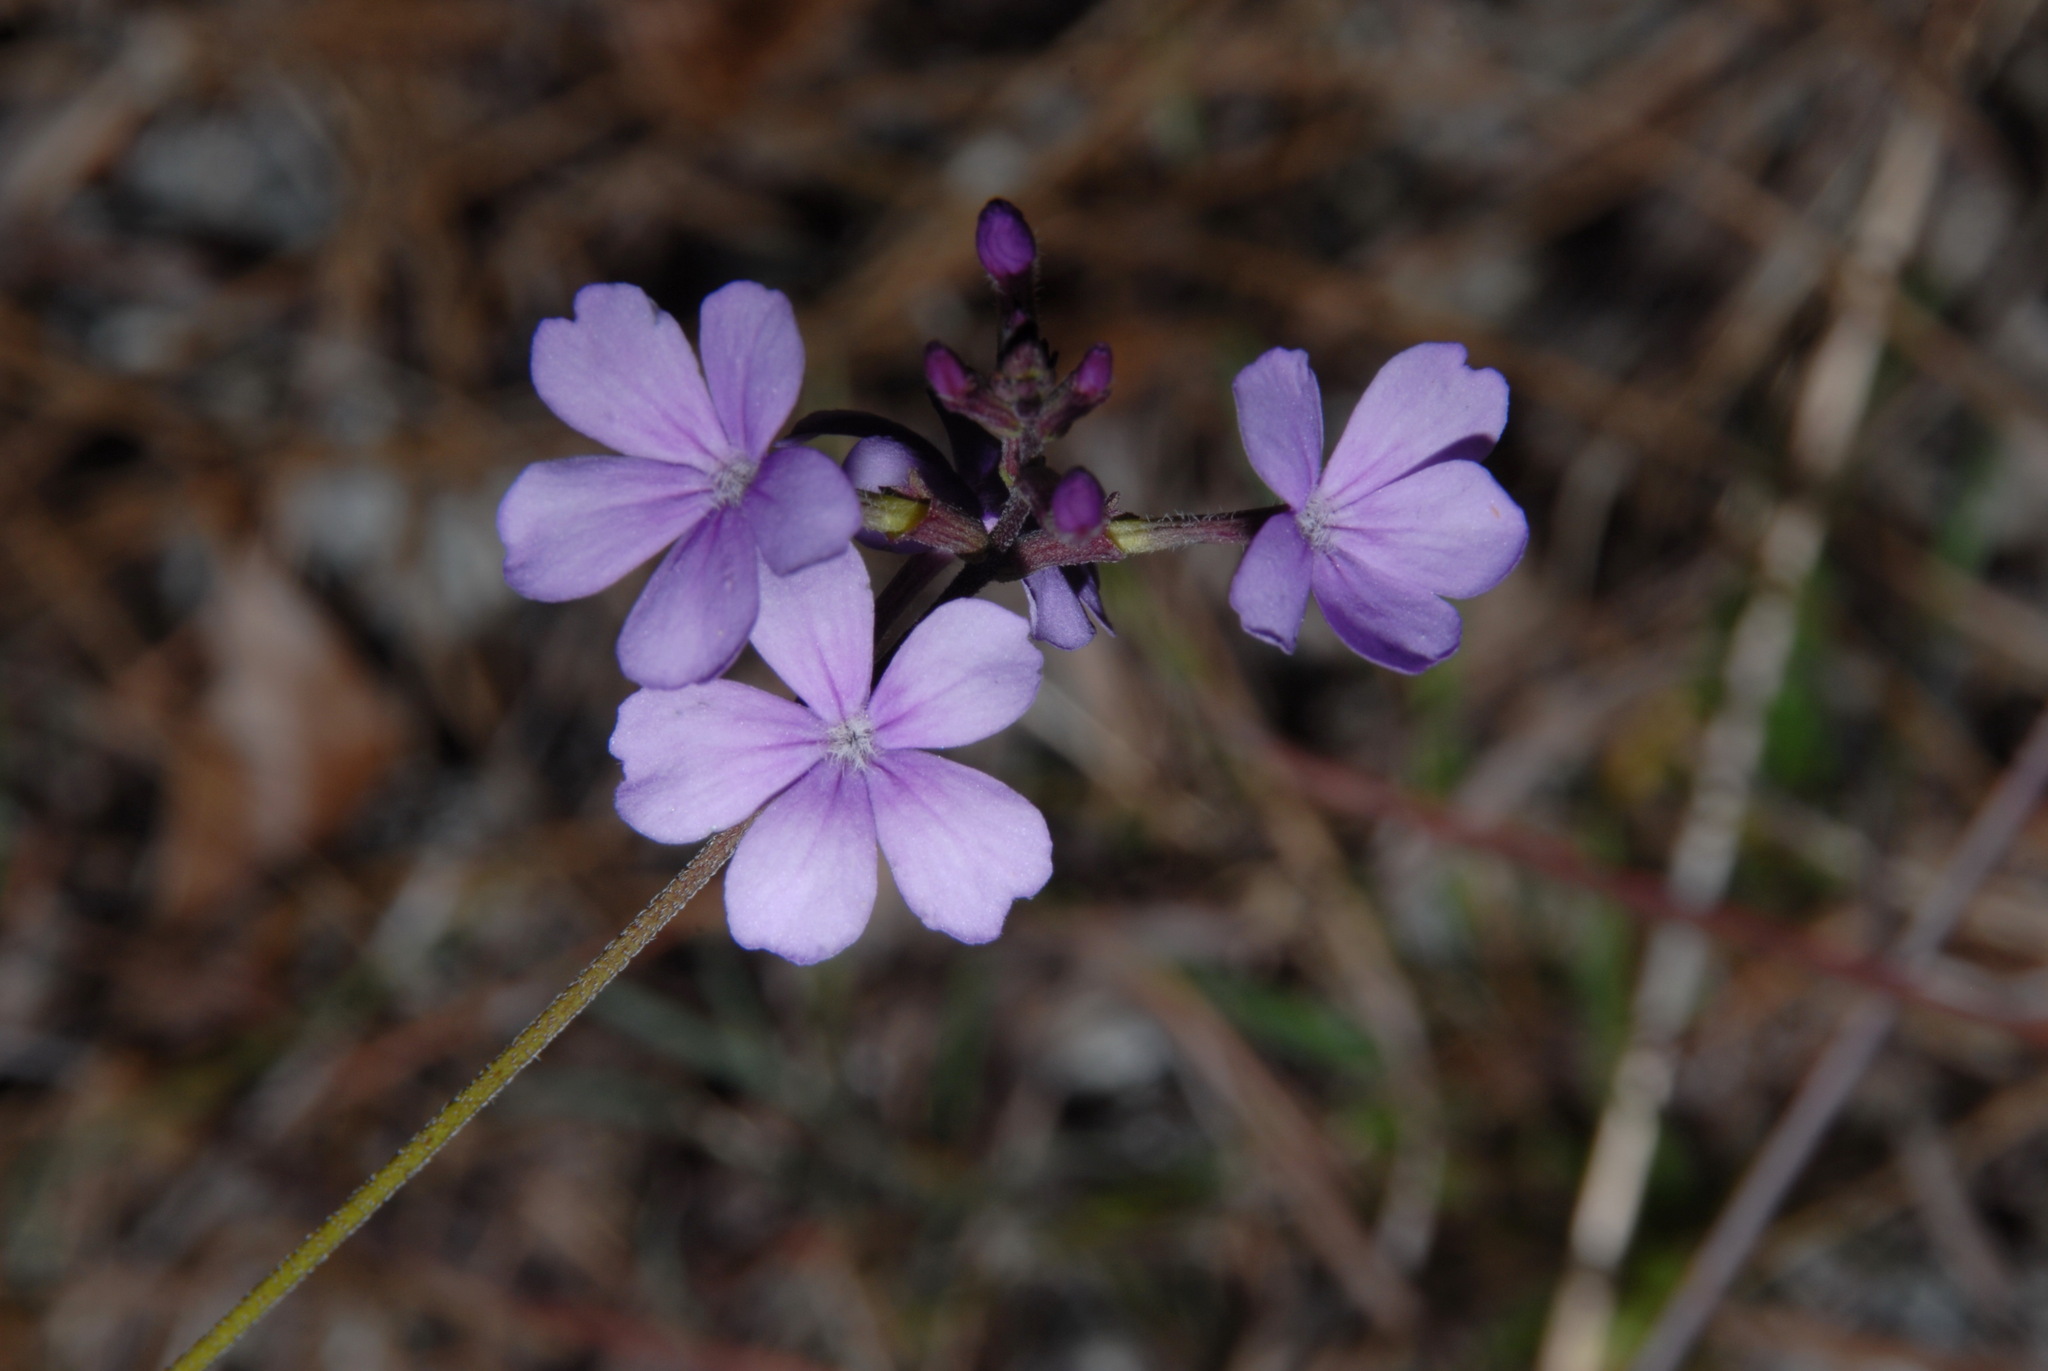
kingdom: Plantae
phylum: Tracheophyta
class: Magnoliopsida
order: Lamiales
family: Orobanchaceae
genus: Buchnera
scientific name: Buchnera floridana
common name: Florida bluehearts
